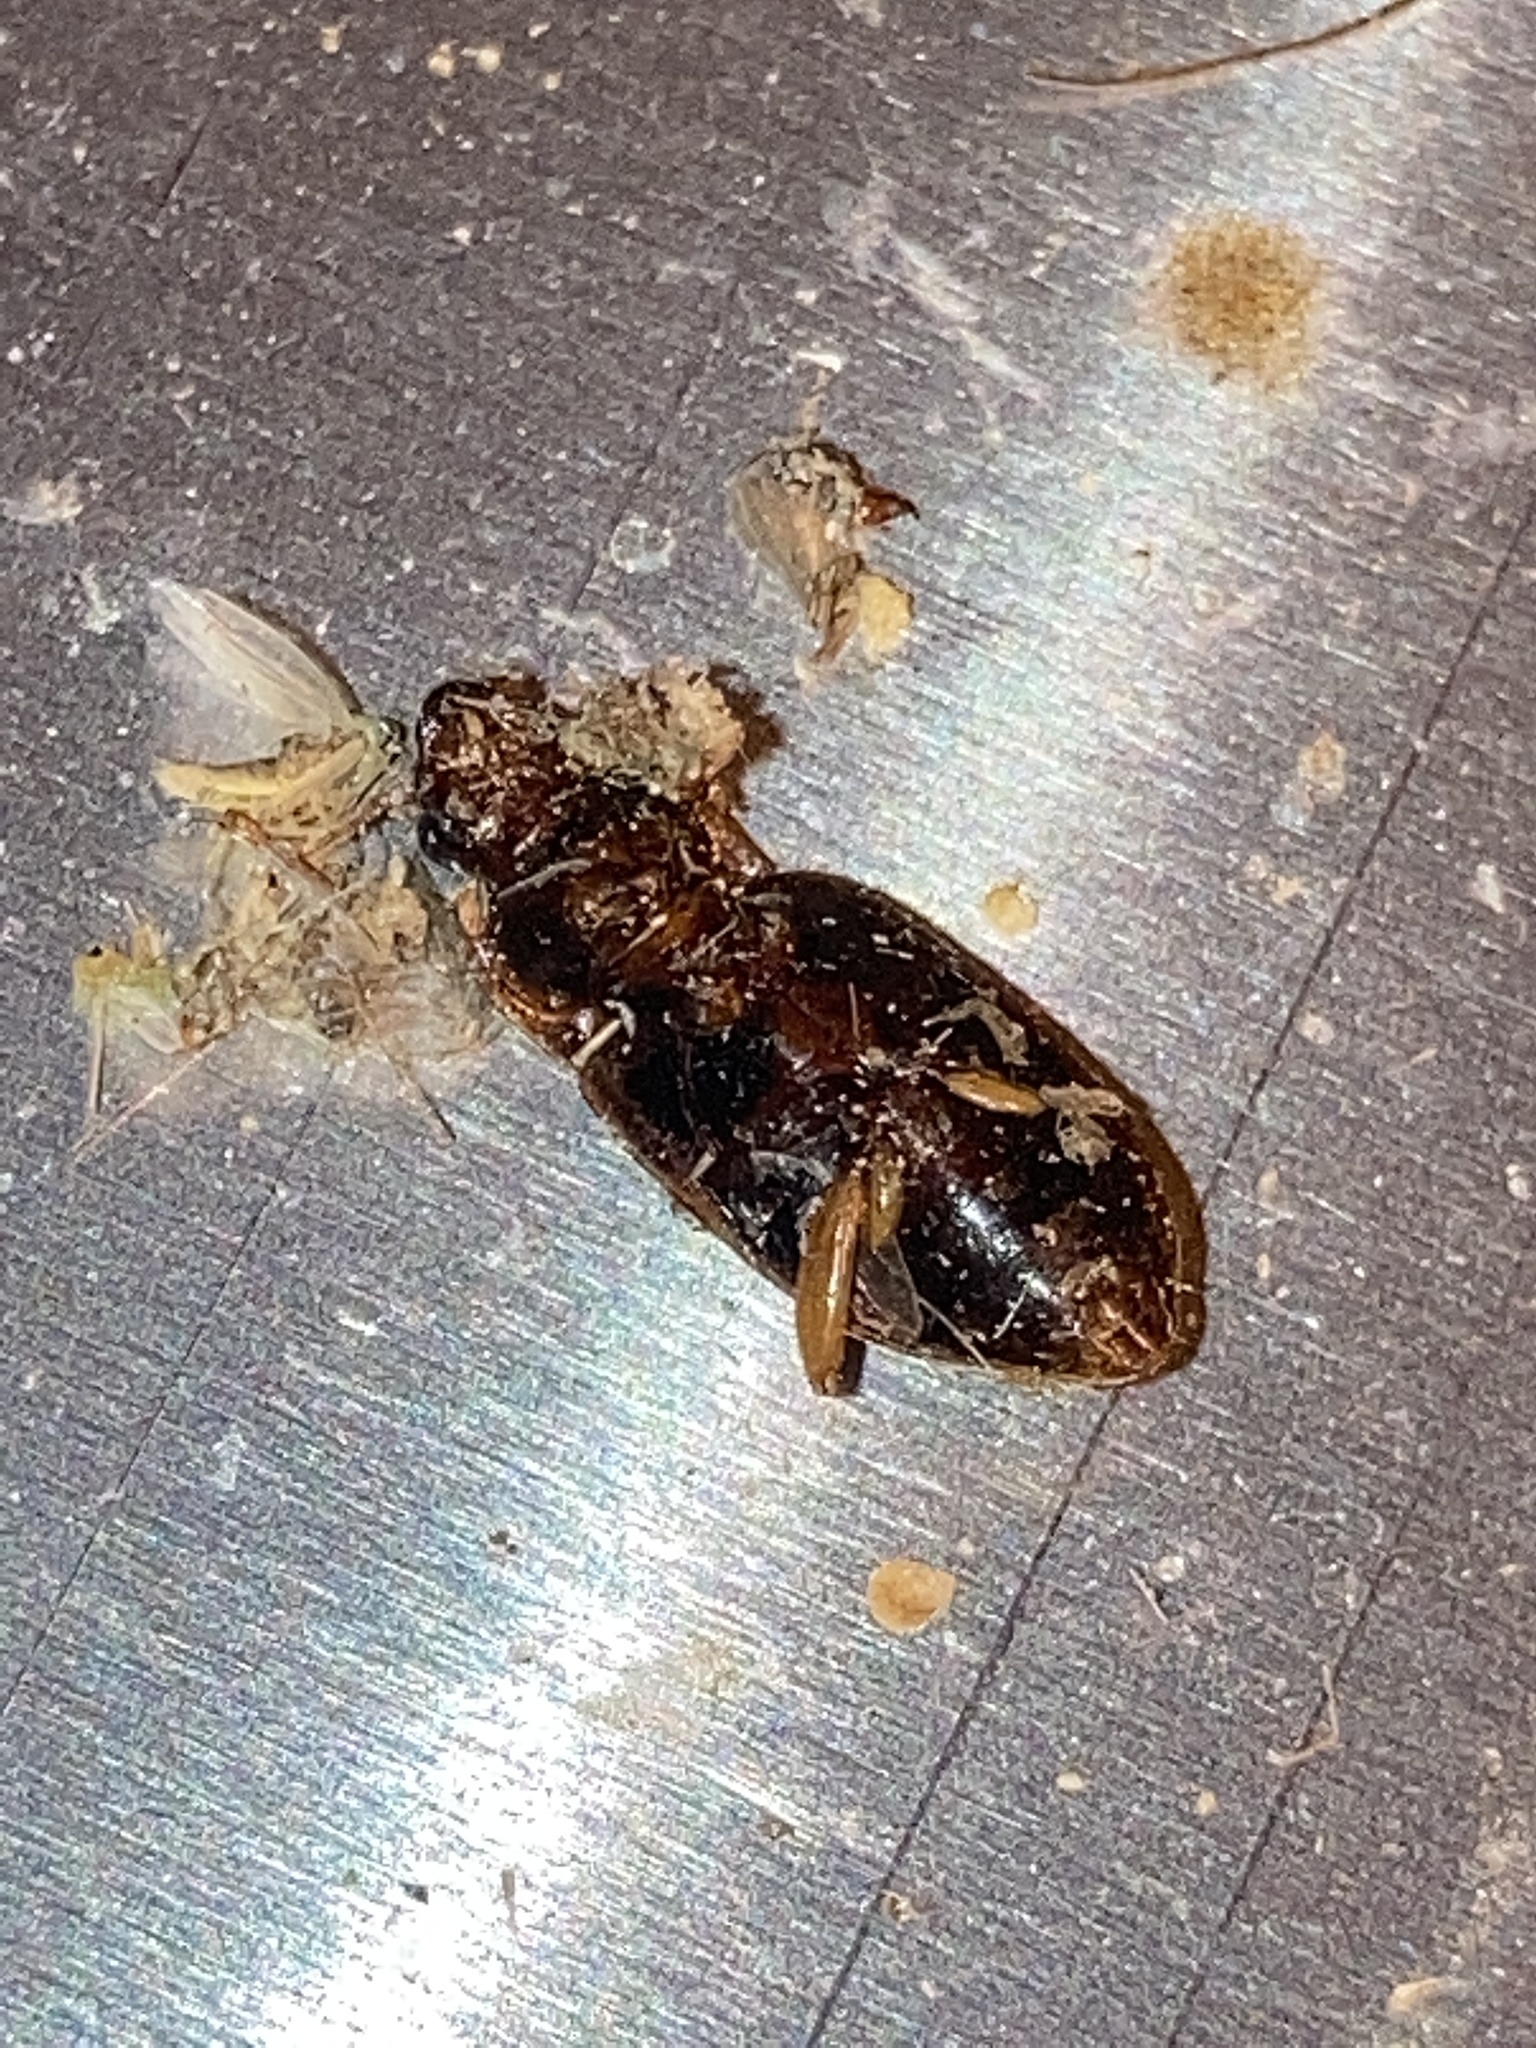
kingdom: Animalia
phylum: Arthropoda
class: Insecta
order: Coleoptera
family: Carabidae
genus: Notiobia
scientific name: Notiobia terminata
